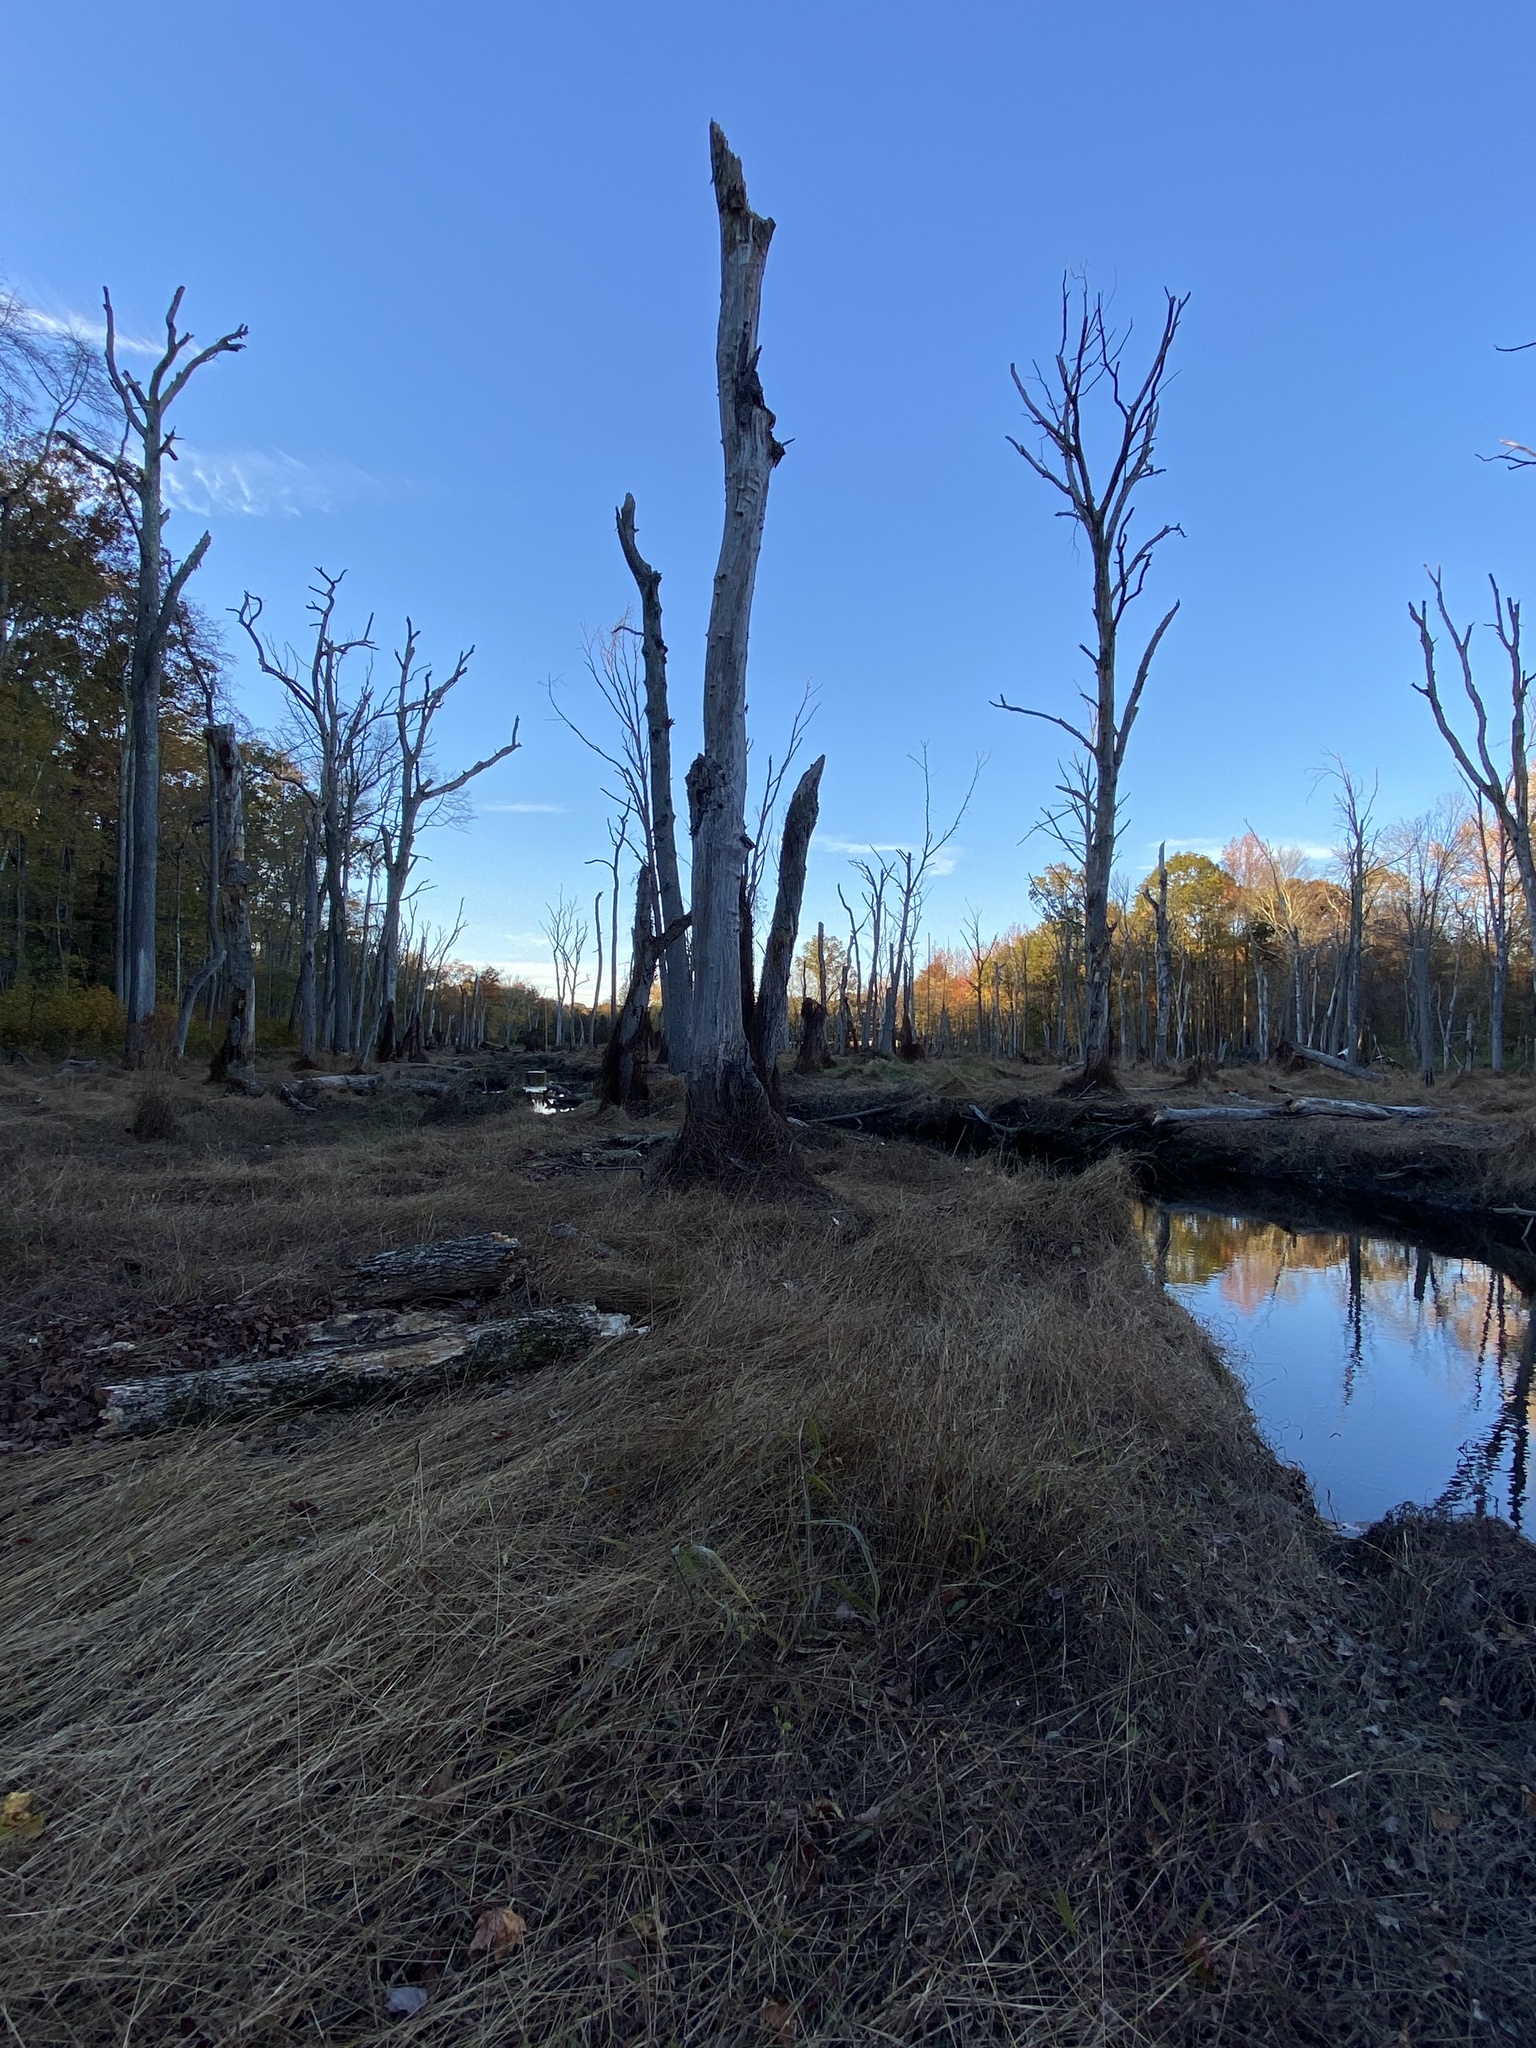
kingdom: Plantae
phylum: Tracheophyta
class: Liliopsida
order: Poales
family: Poaceae
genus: Microstegium
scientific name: Microstegium vimineum
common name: Japanese stiltgrass
